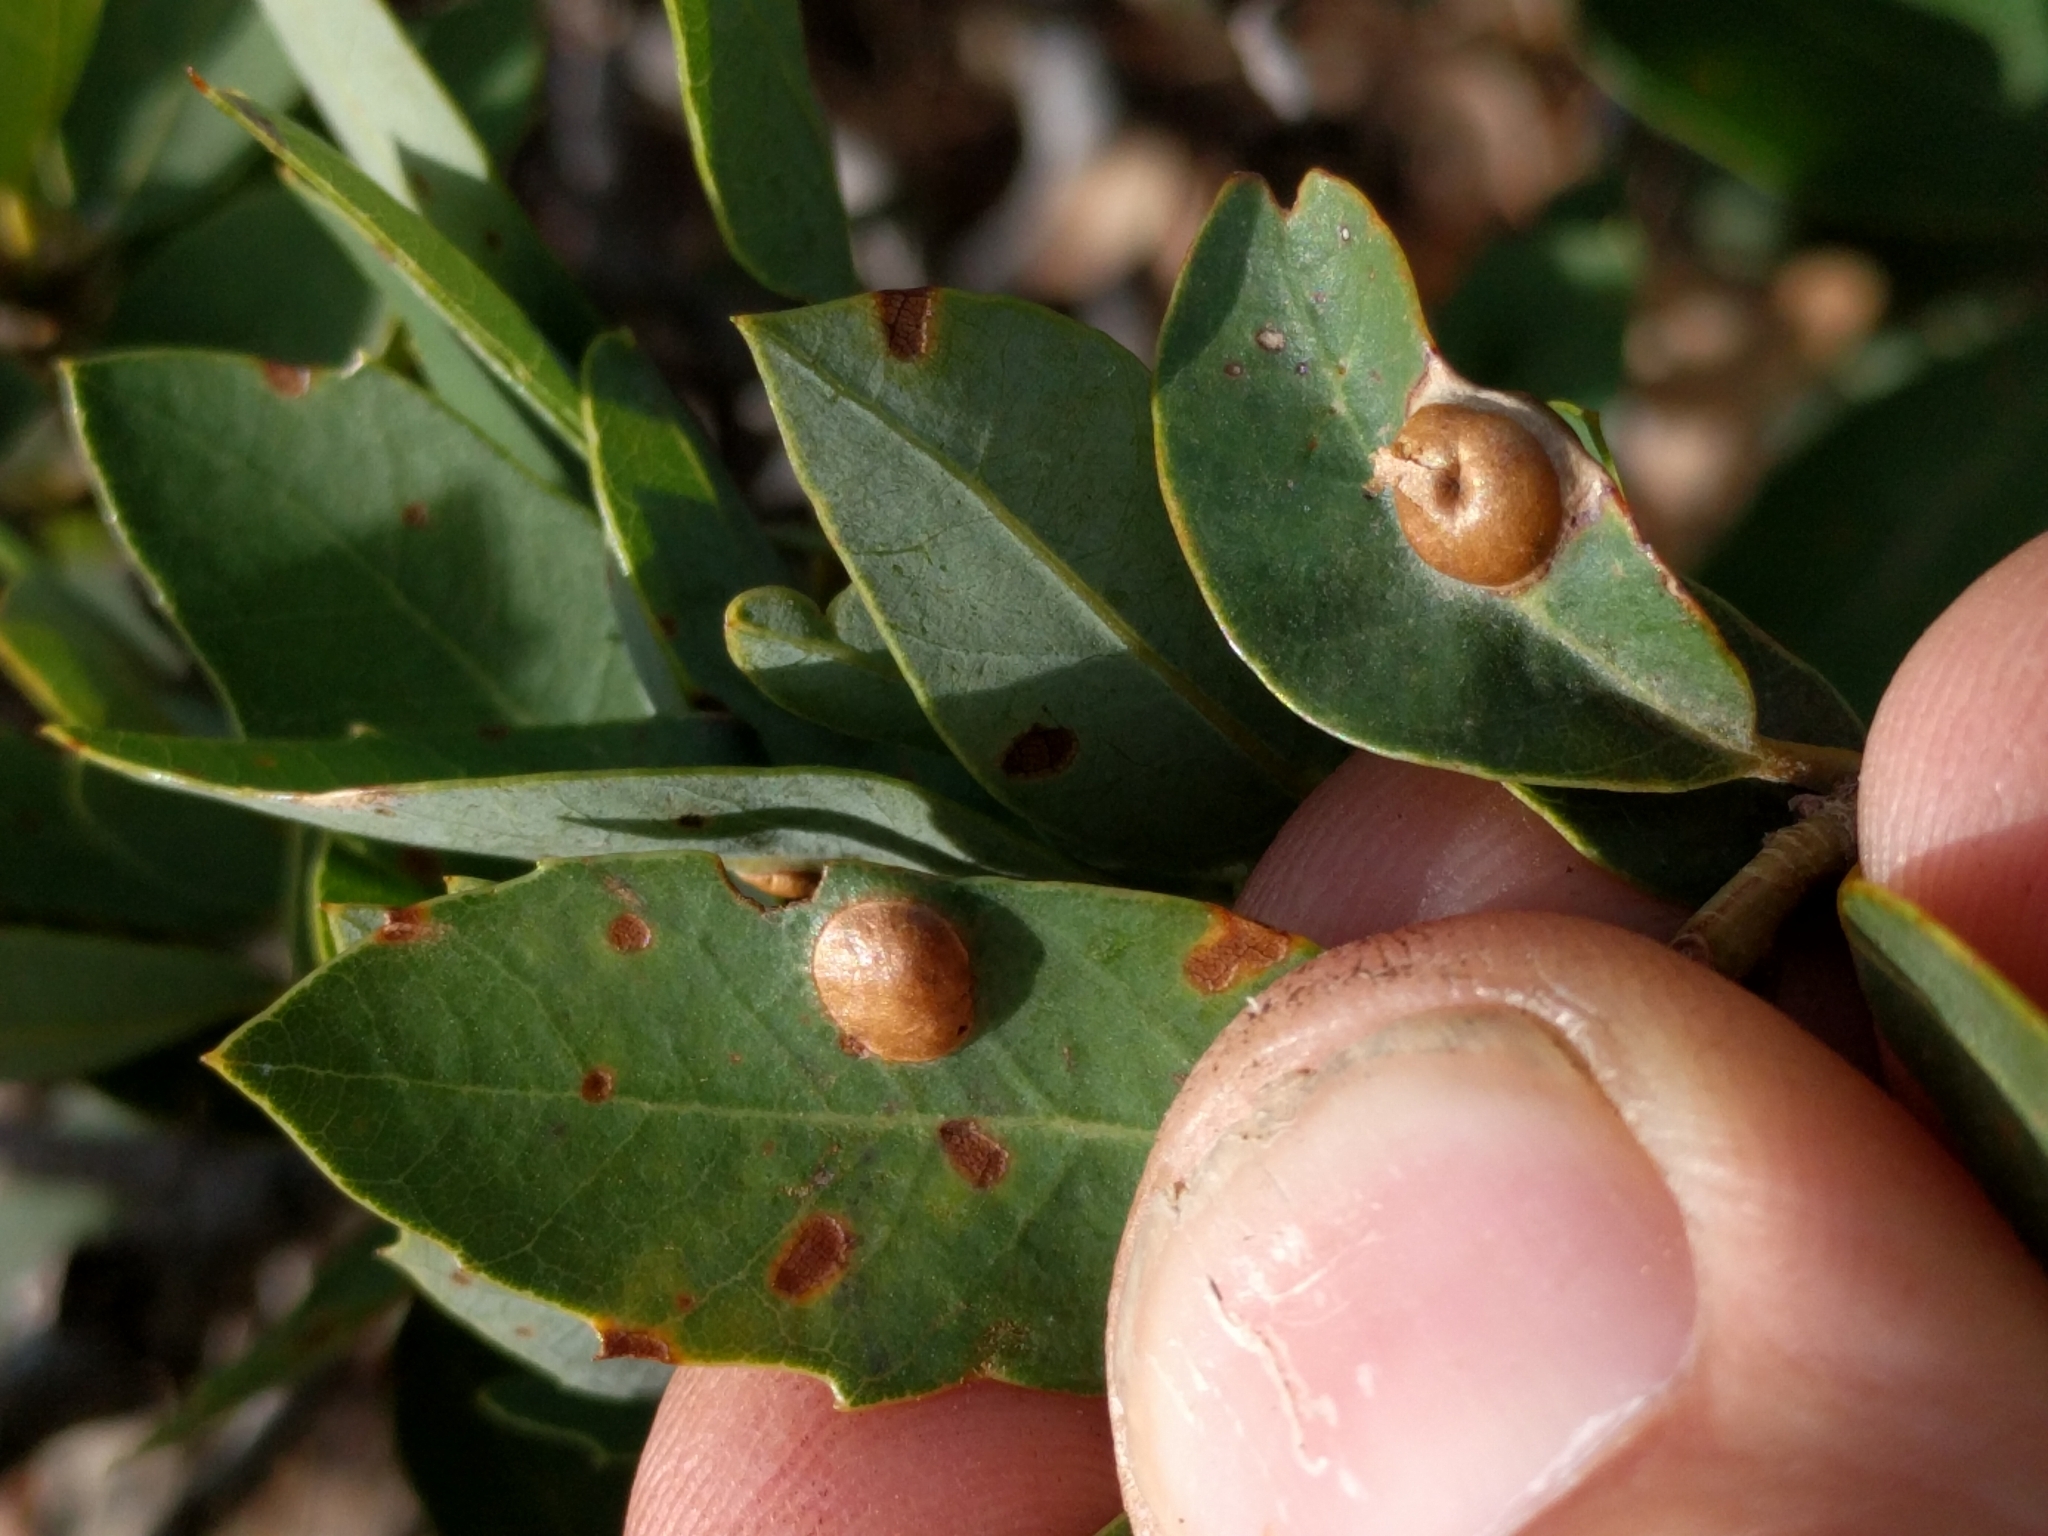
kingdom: Animalia
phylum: Arthropoda
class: Insecta
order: Hymenoptera
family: Cynipidae
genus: Heteroecus
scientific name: Heteroecus
